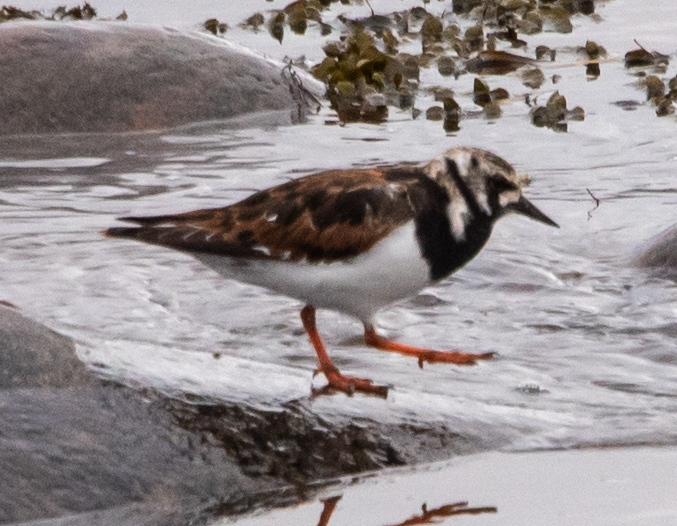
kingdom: Animalia
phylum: Chordata
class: Aves
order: Charadriiformes
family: Scolopacidae
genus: Arenaria
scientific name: Arenaria interpres
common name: Ruddy turnstone
